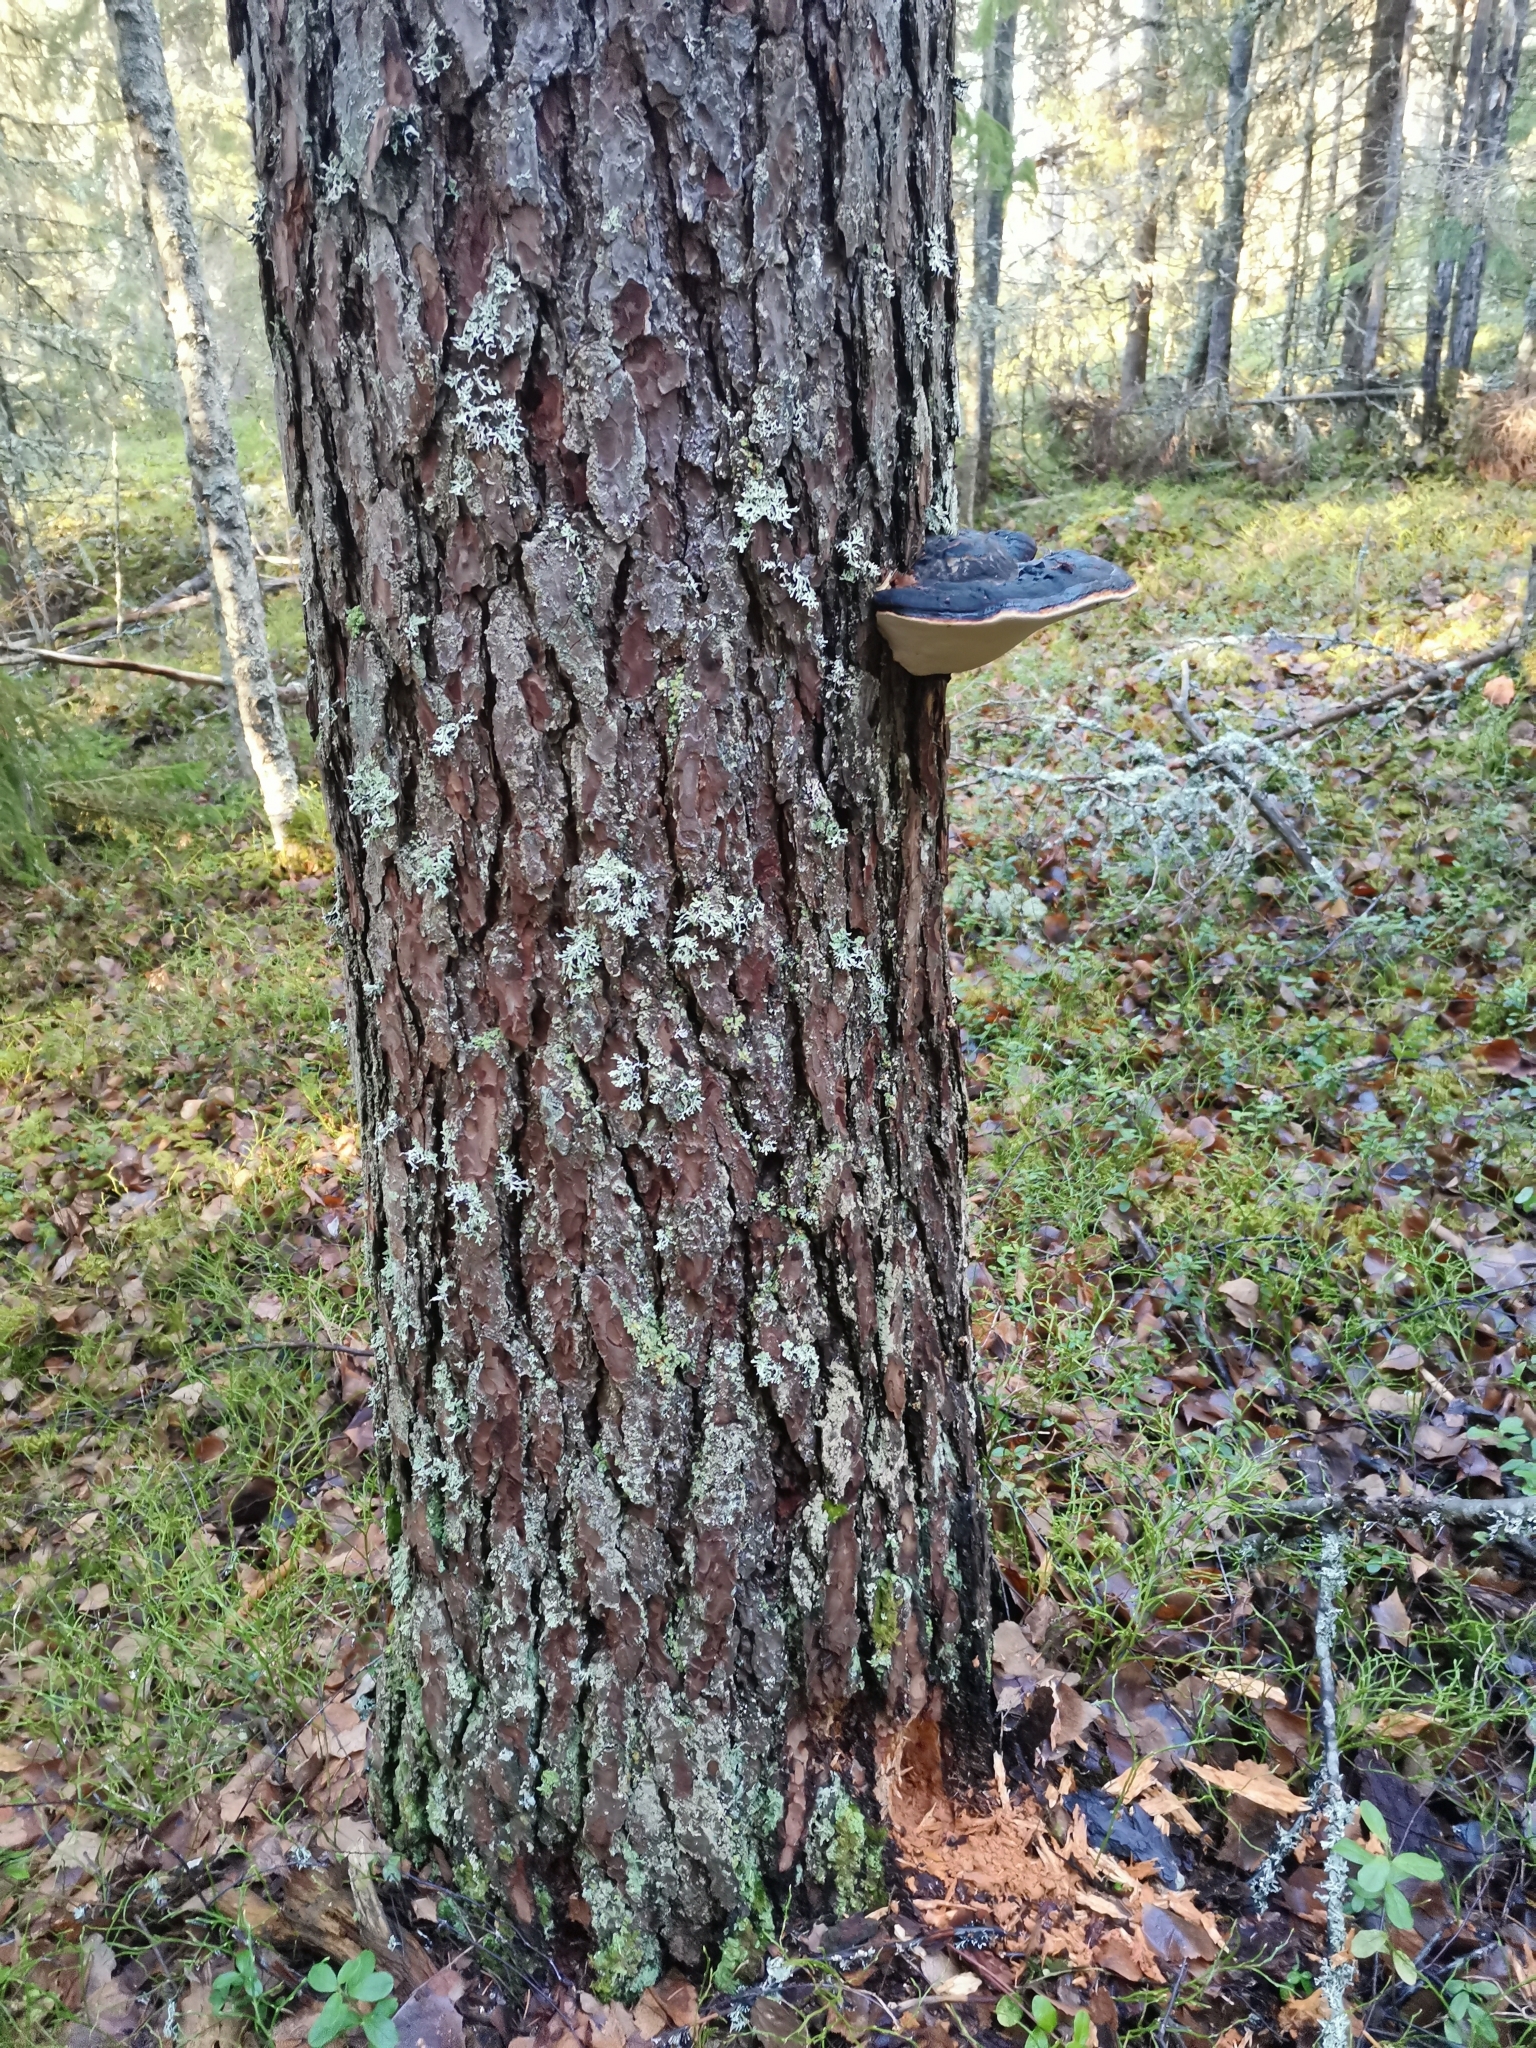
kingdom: Fungi
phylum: Basidiomycota
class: Agaricomycetes
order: Polyporales
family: Fomitopsidaceae
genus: Fomitopsis
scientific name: Fomitopsis pinicola
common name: Red-belted bracket
